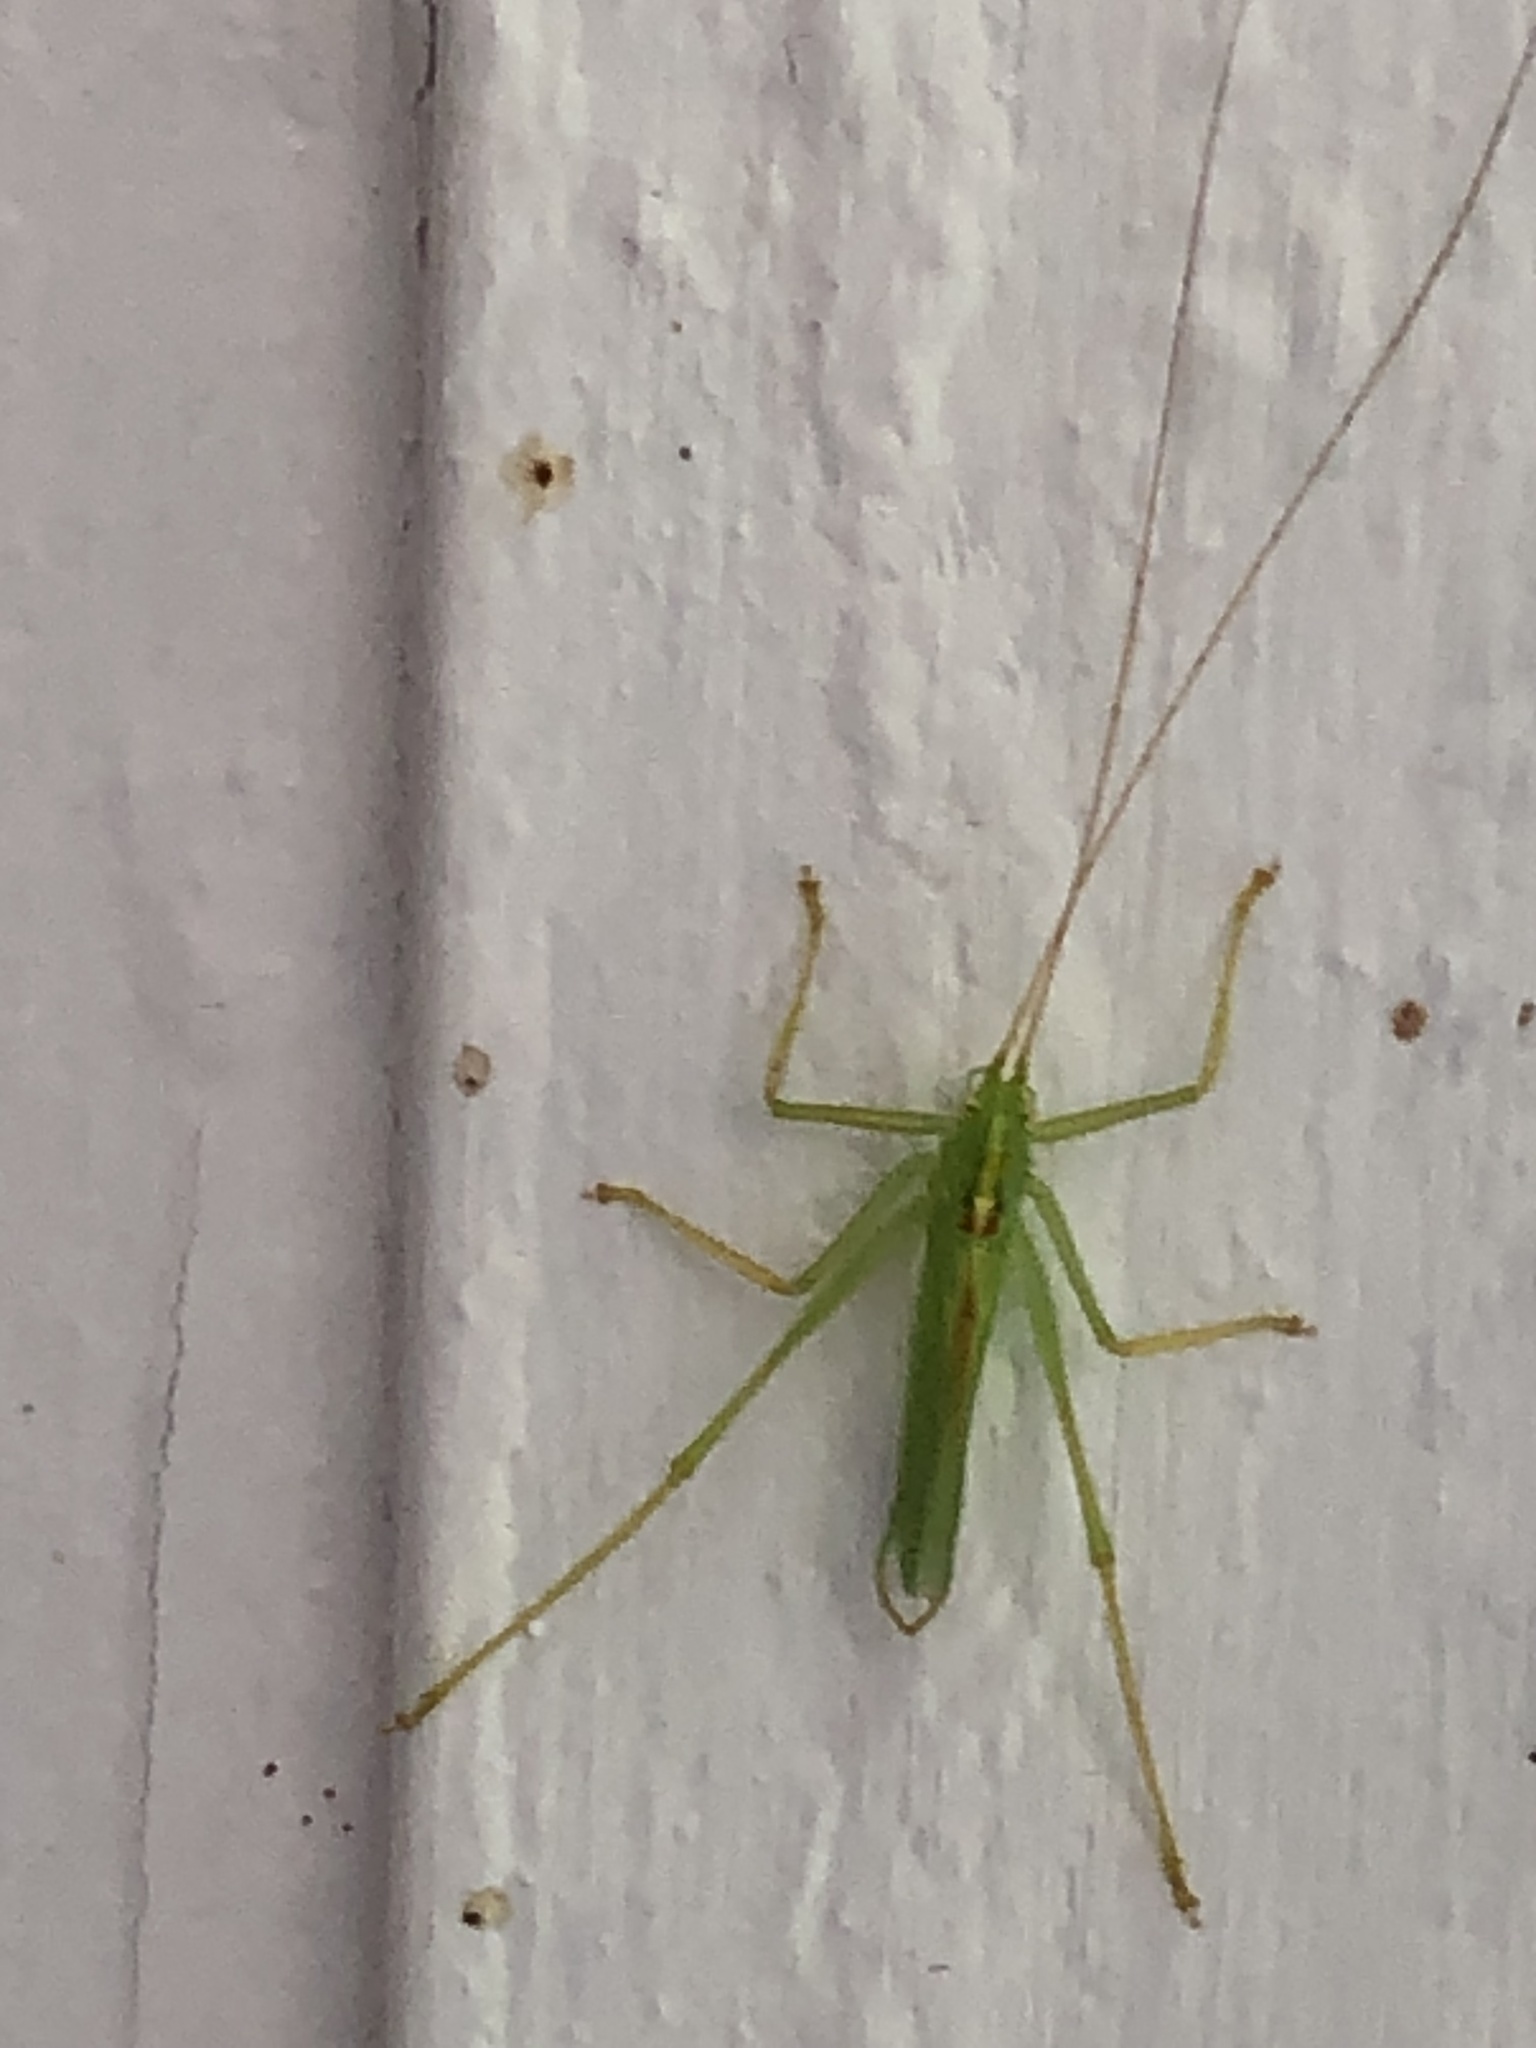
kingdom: Animalia
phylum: Arthropoda
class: Insecta
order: Orthoptera
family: Tettigoniidae
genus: Meconema
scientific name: Meconema thalassinum
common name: Oak bush-cricket
